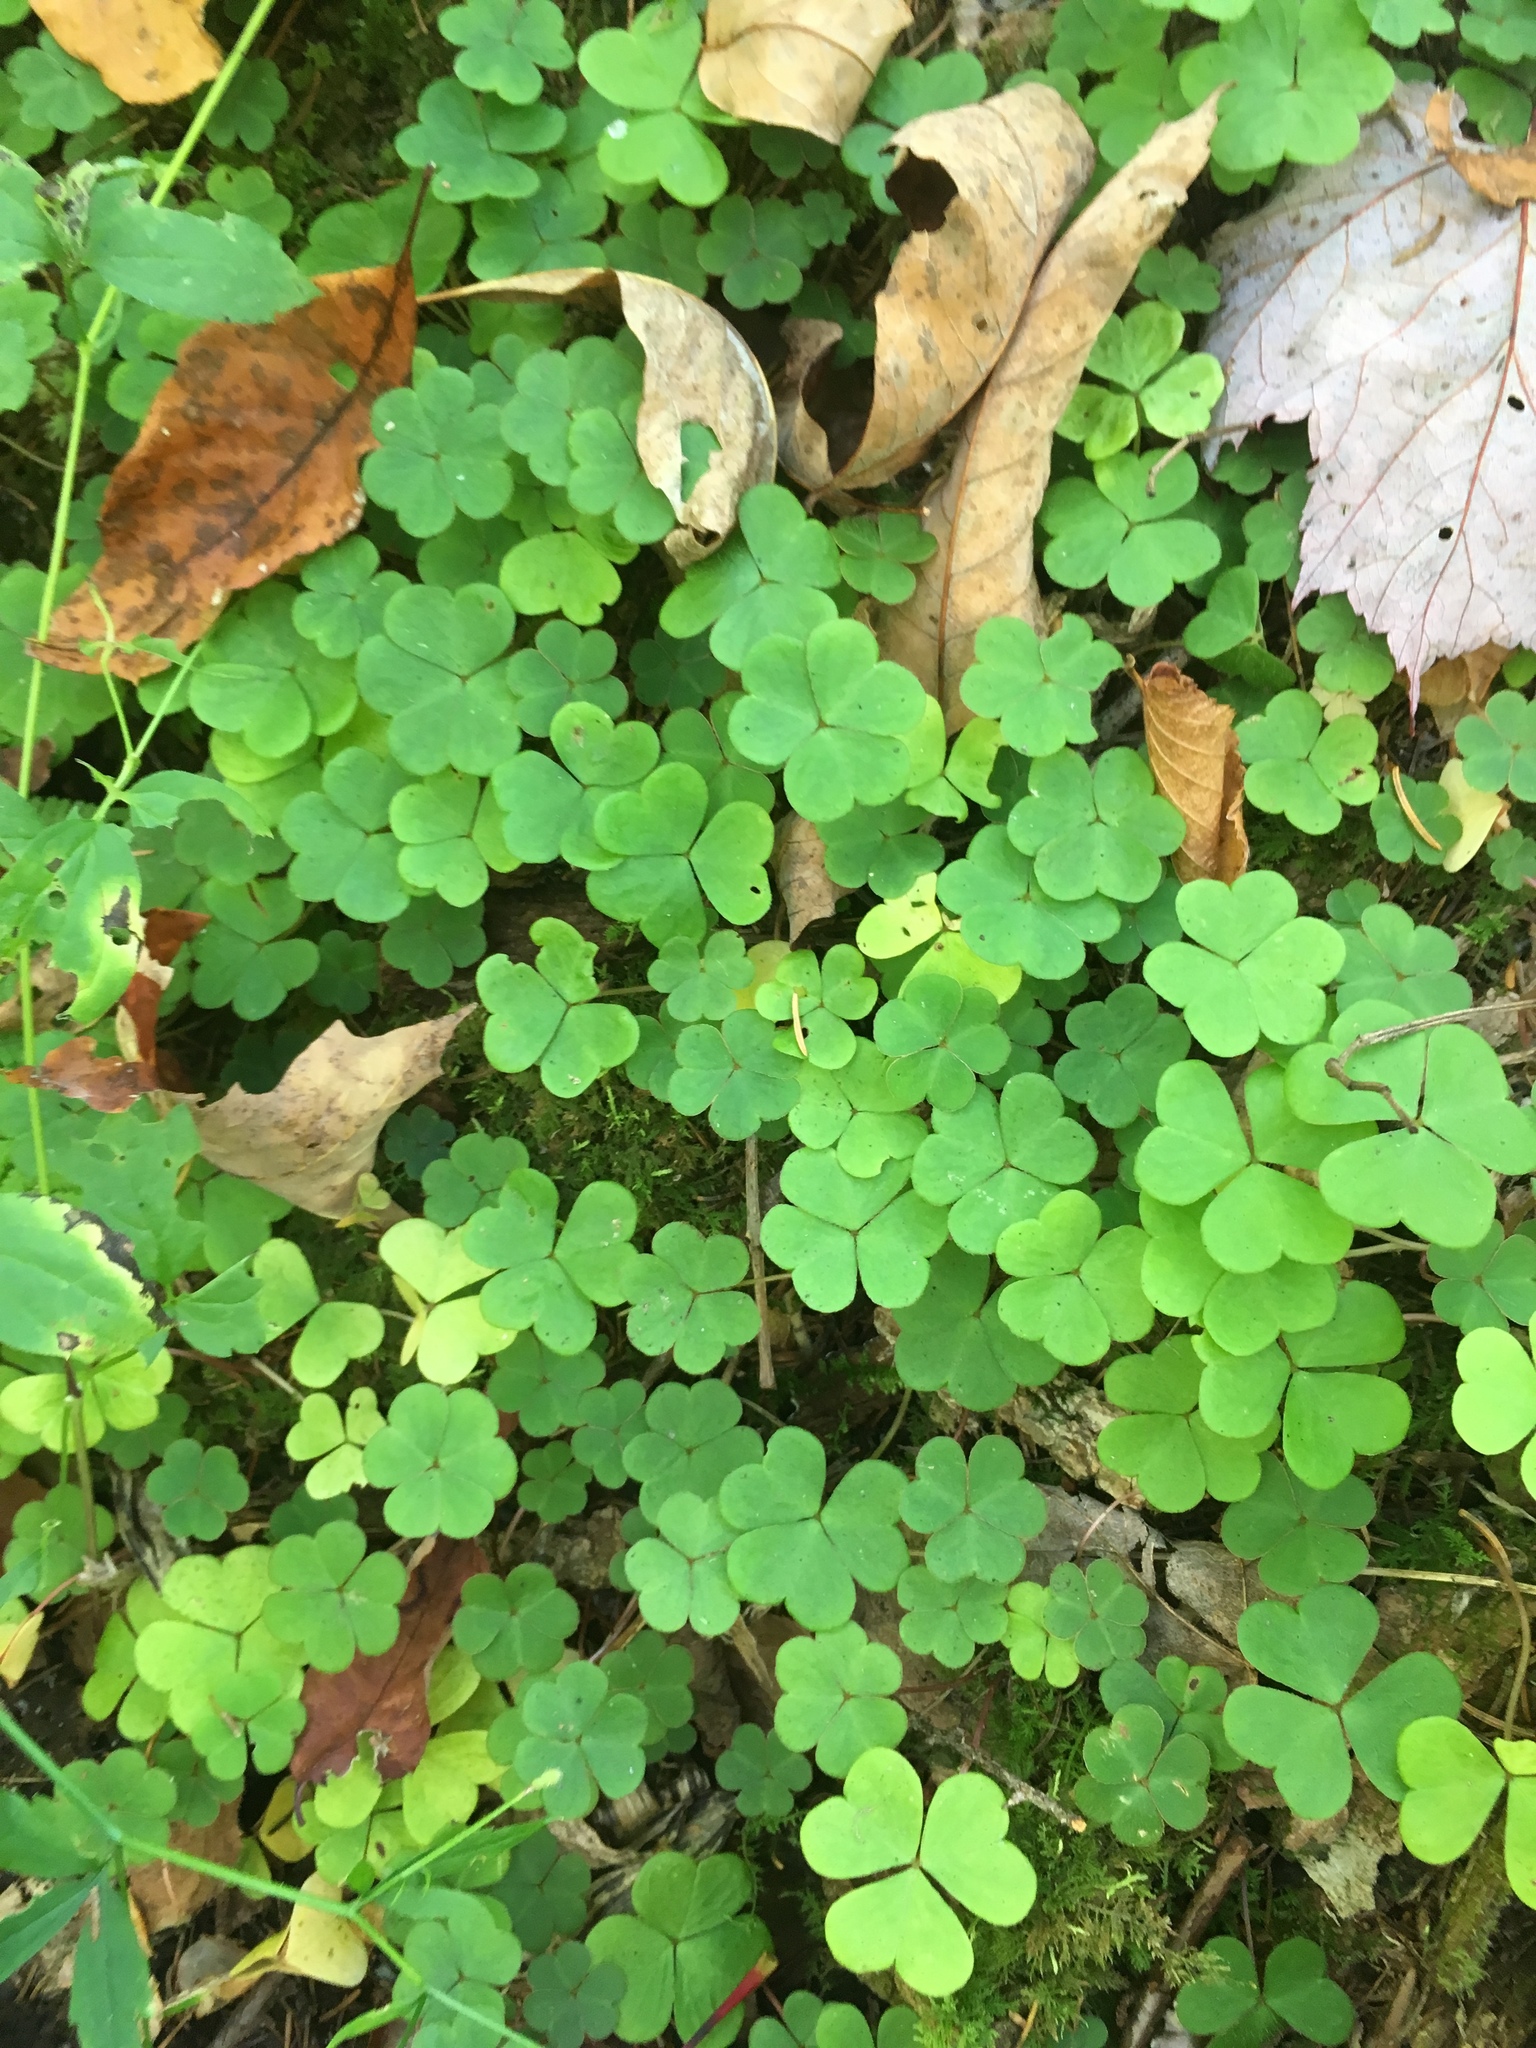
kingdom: Plantae
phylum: Tracheophyta
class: Magnoliopsida
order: Oxalidales
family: Oxalidaceae
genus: Oxalis
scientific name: Oxalis montana
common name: American wood-sorrel
